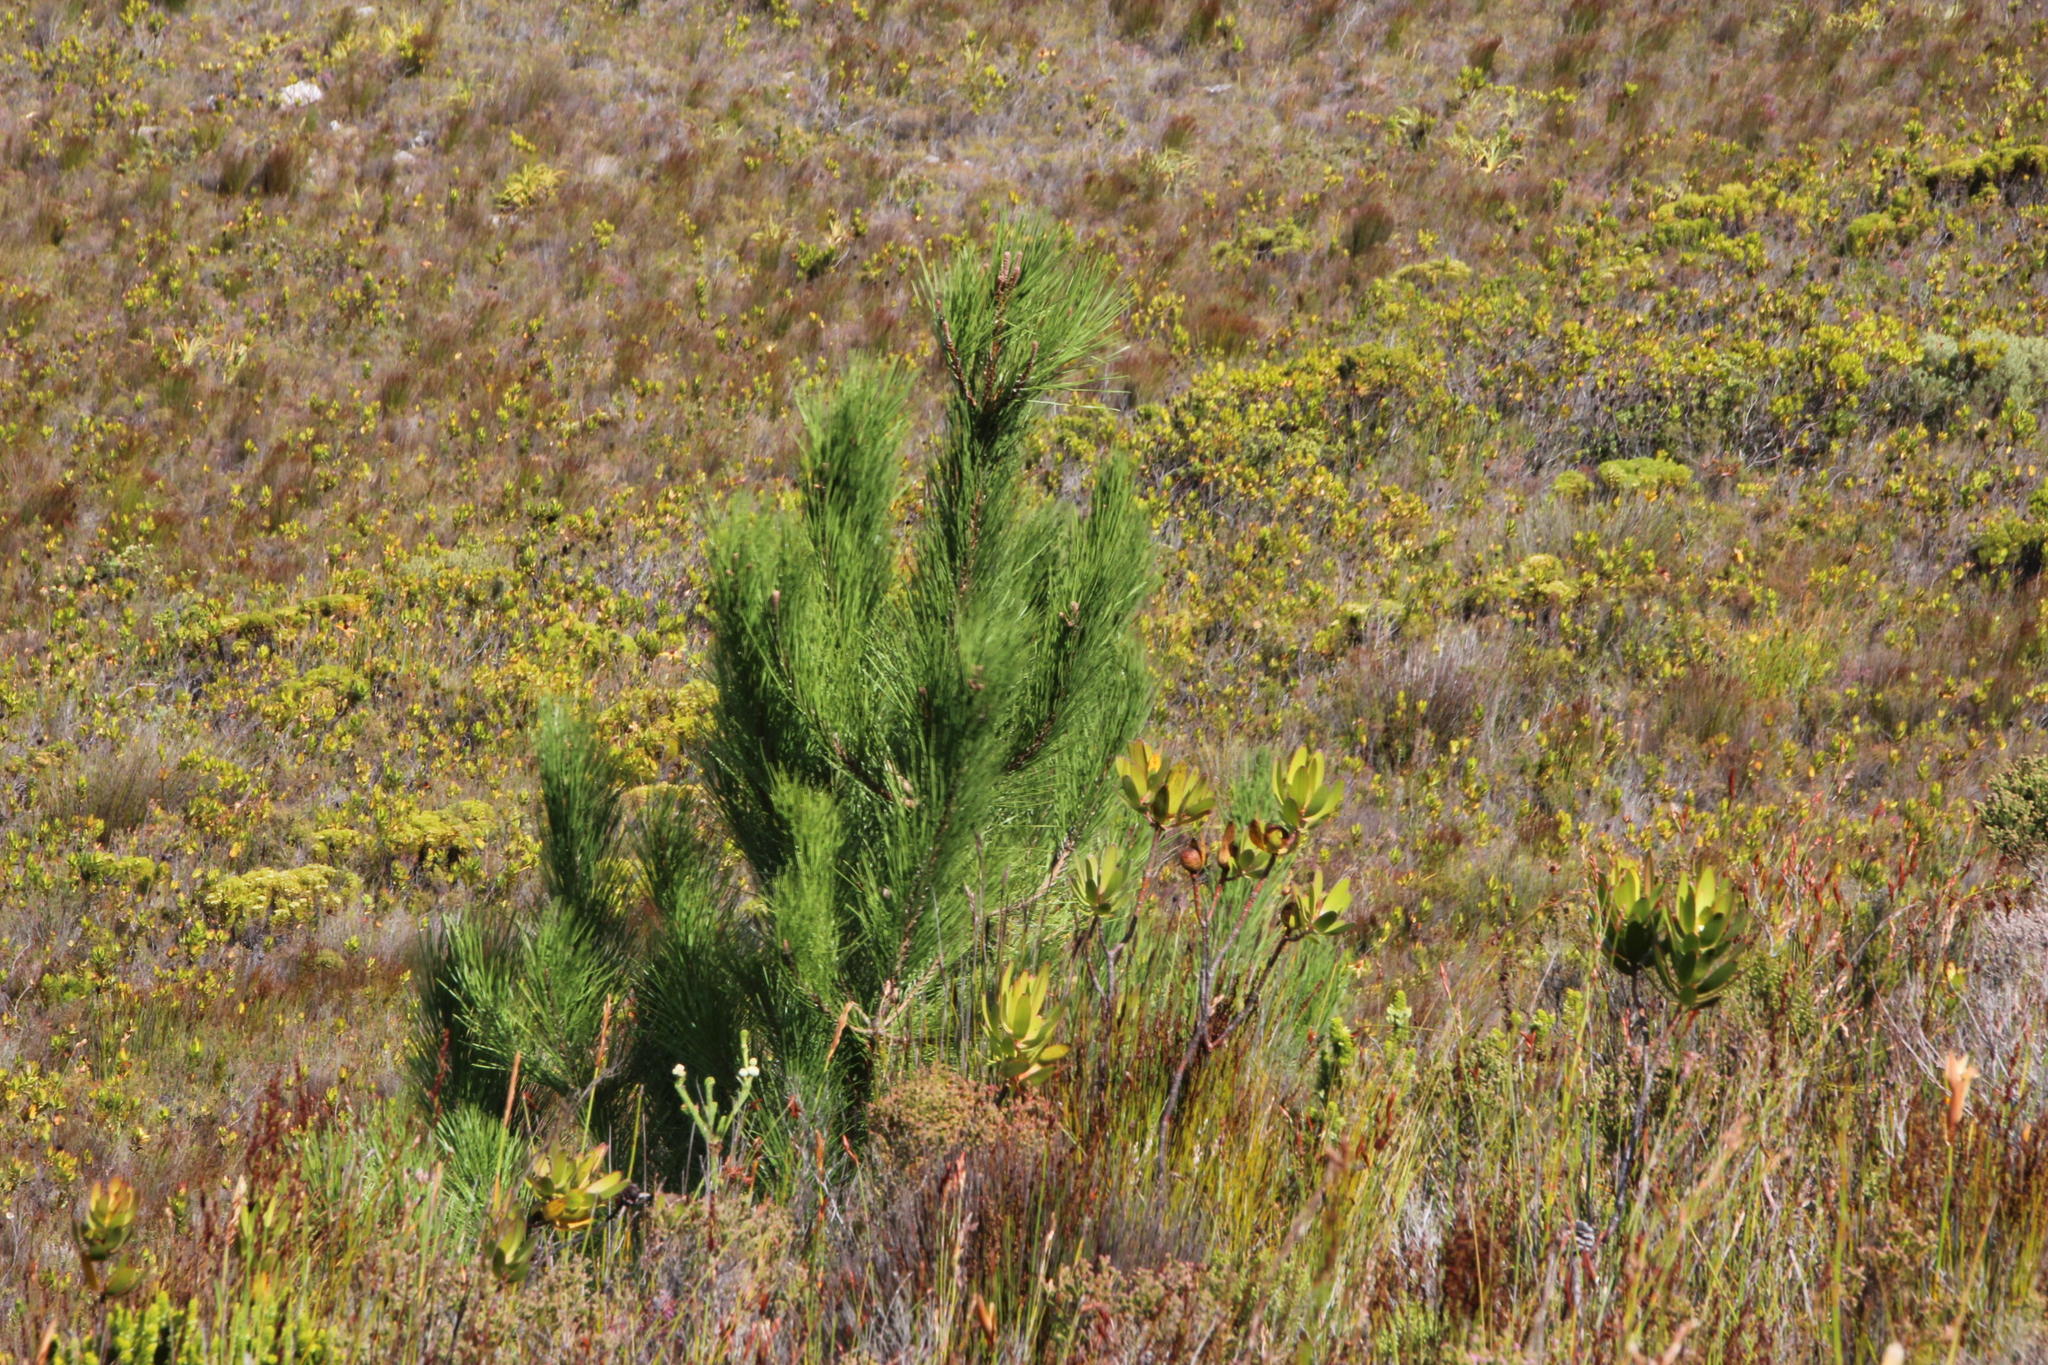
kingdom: Plantae
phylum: Tracheophyta
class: Pinopsida
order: Pinales
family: Pinaceae
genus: Pinus
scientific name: Pinus pinaster
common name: Maritime pine
